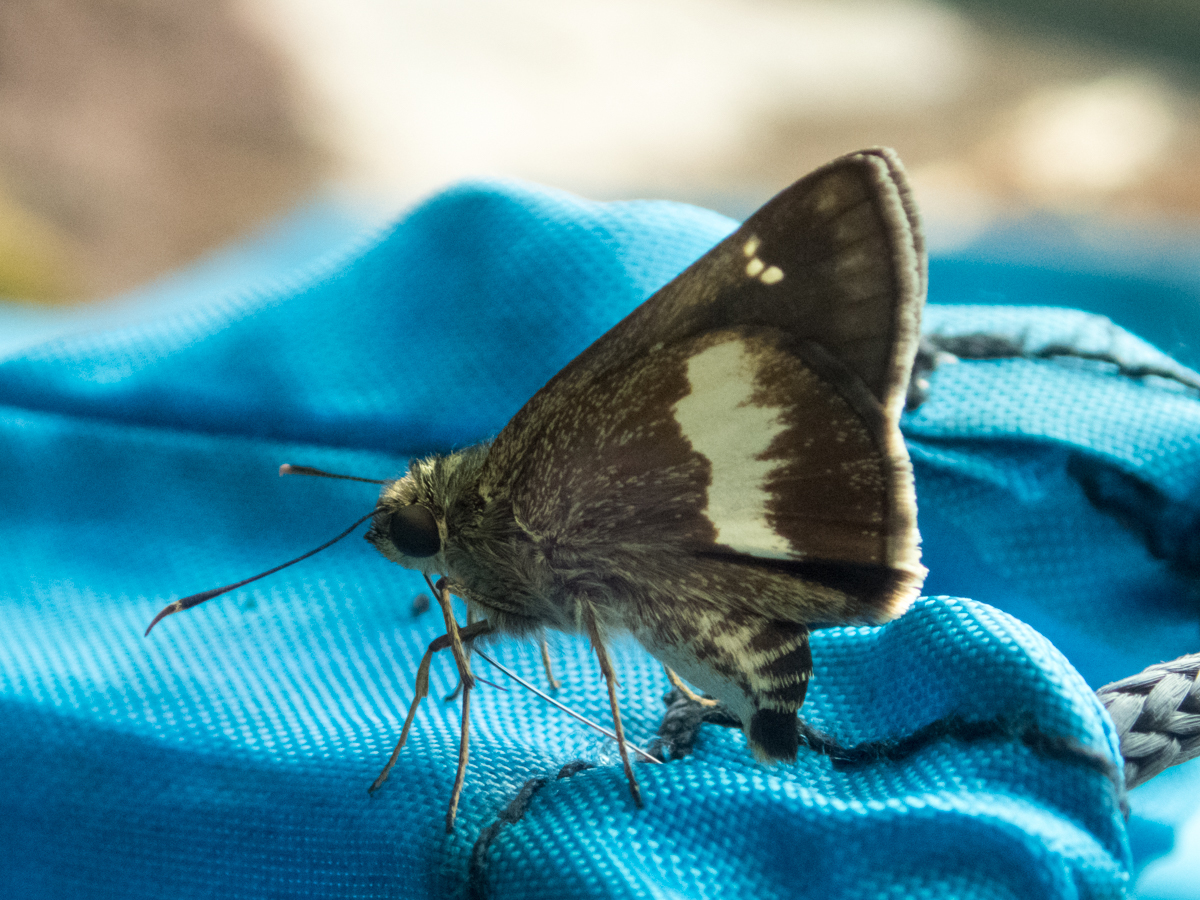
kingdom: Animalia
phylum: Arthropoda
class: Insecta
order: Lepidoptera
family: Hesperiidae
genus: Halpe
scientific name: Halpe zola
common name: Long-banded ace
